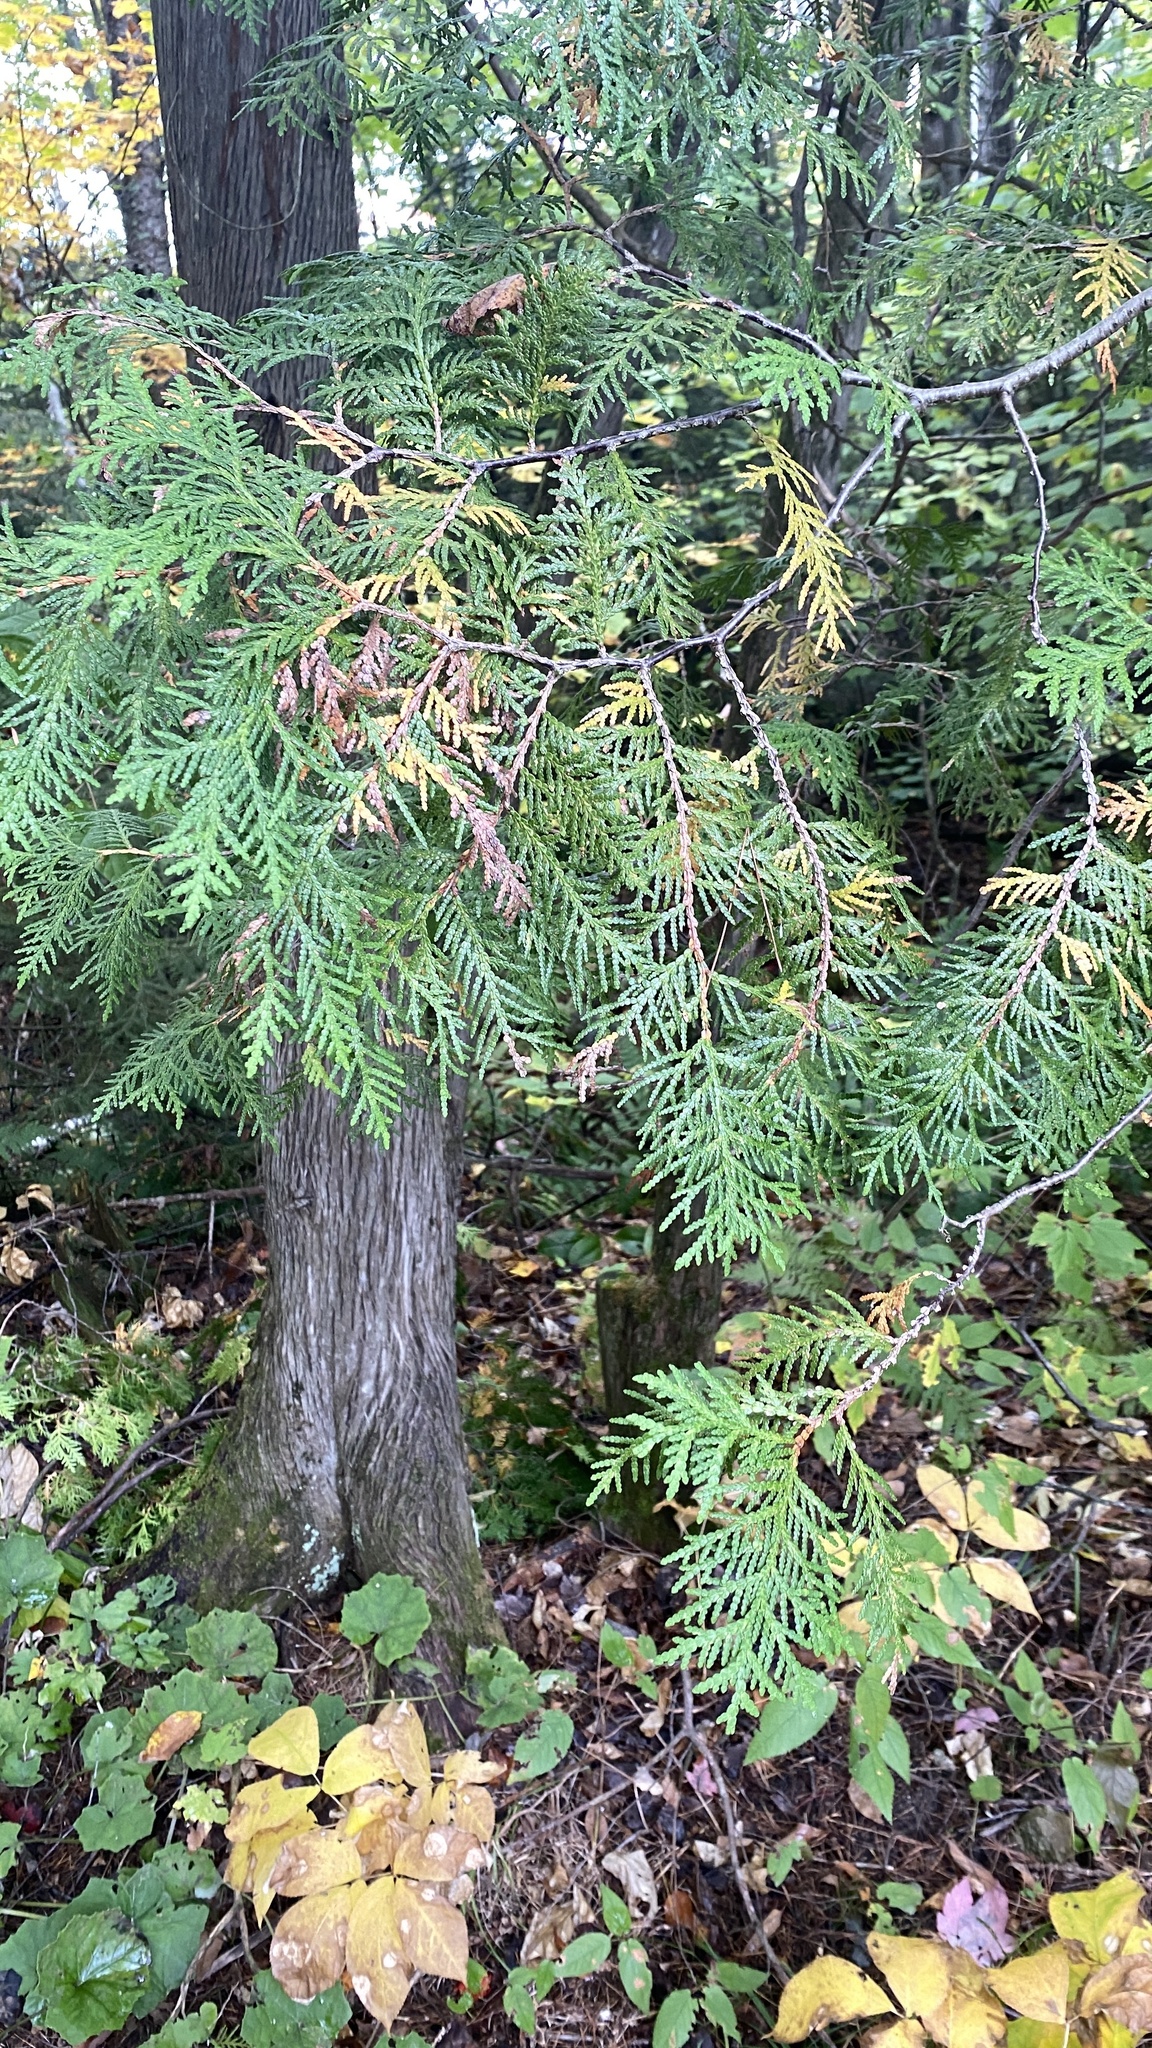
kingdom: Plantae
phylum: Tracheophyta
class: Pinopsida
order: Pinales
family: Cupressaceae
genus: Thuja
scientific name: Thuja occidentalis
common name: Northern white-cedar
